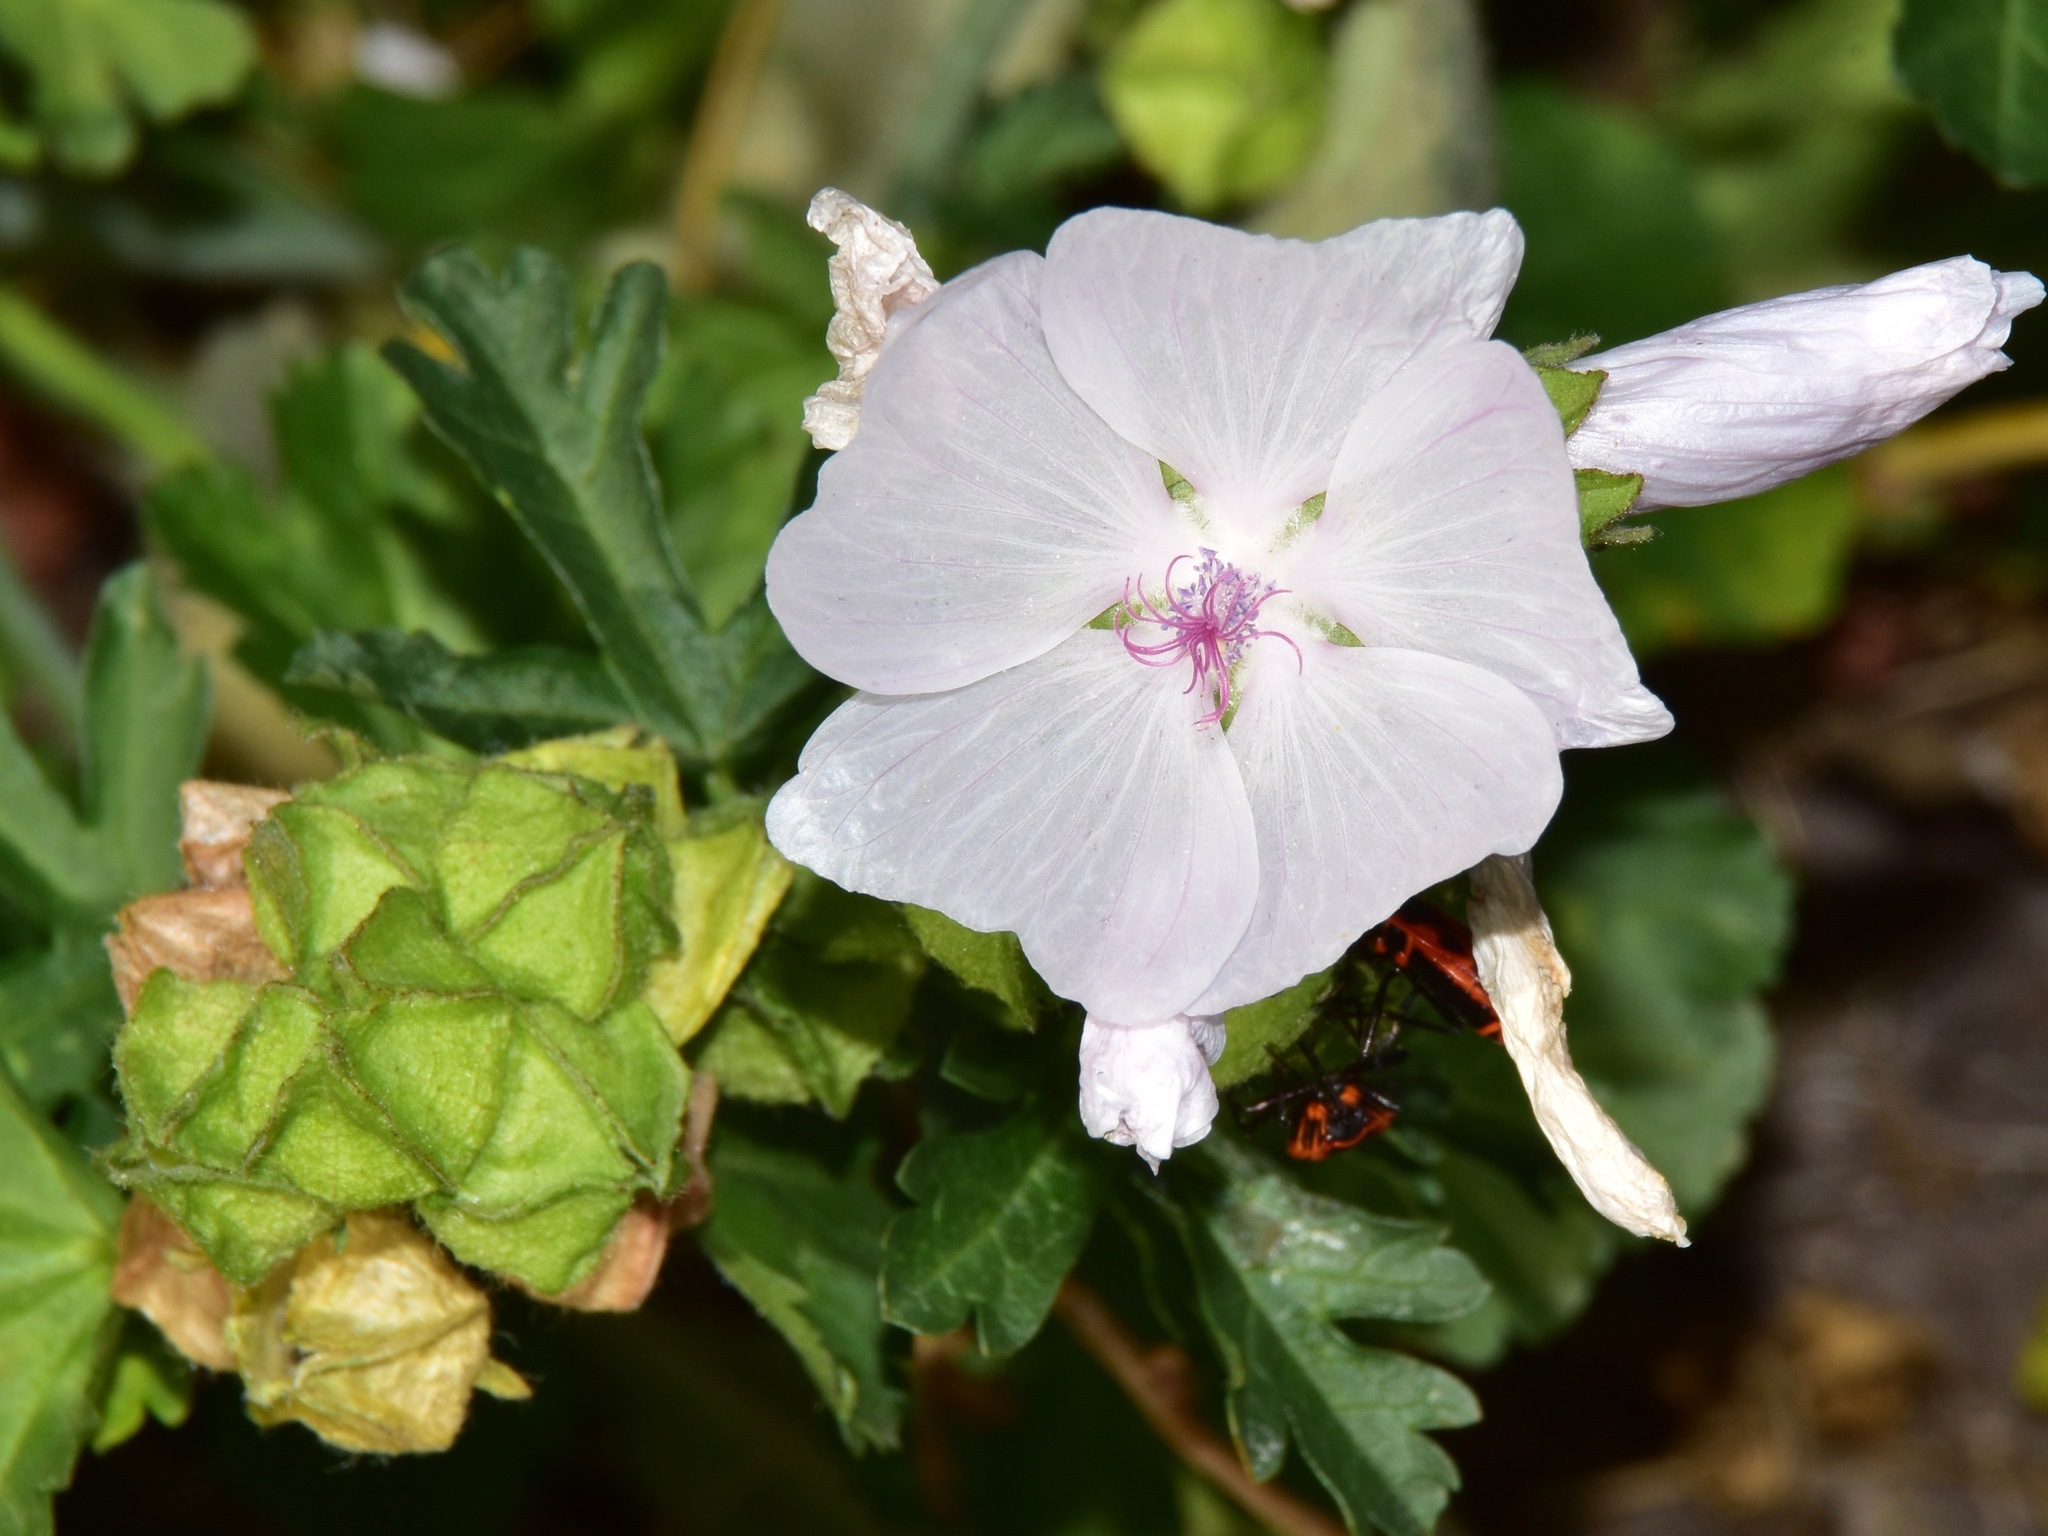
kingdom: Plantae
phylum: Tracheophyta
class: Magnoliopsida
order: Malvales
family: Malvaceae
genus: Malva
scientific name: Malva moschata
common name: Musk mallow
